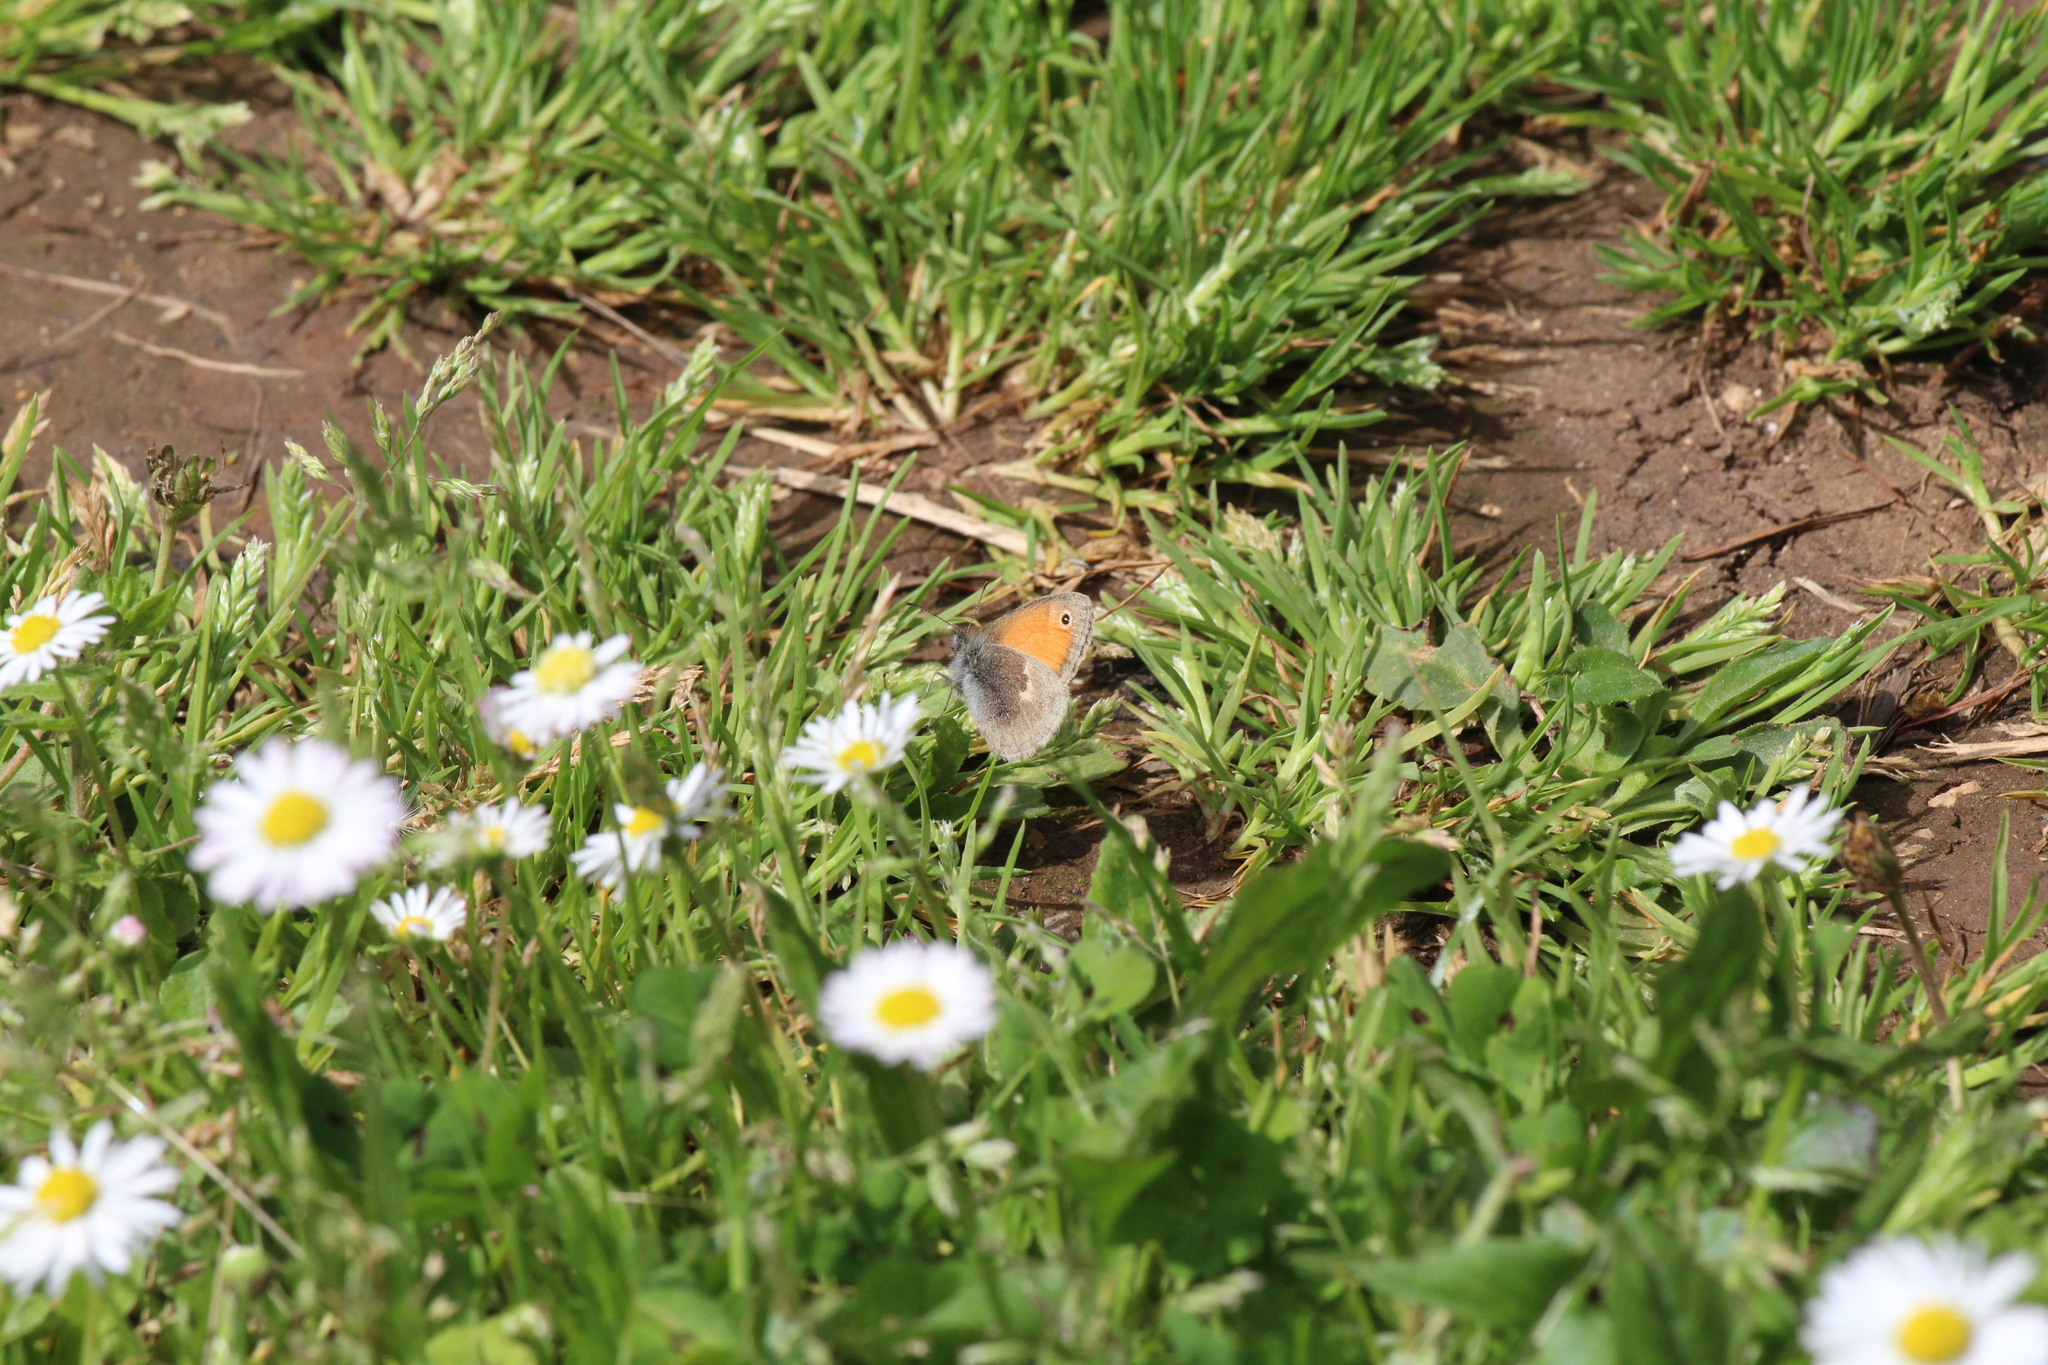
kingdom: Animalia
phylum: Arthropoda
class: Insecta
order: Lepidoptera
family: Nymphalidae
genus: Coenonympha
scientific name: Coenonympha pamphilus
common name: Small heath
